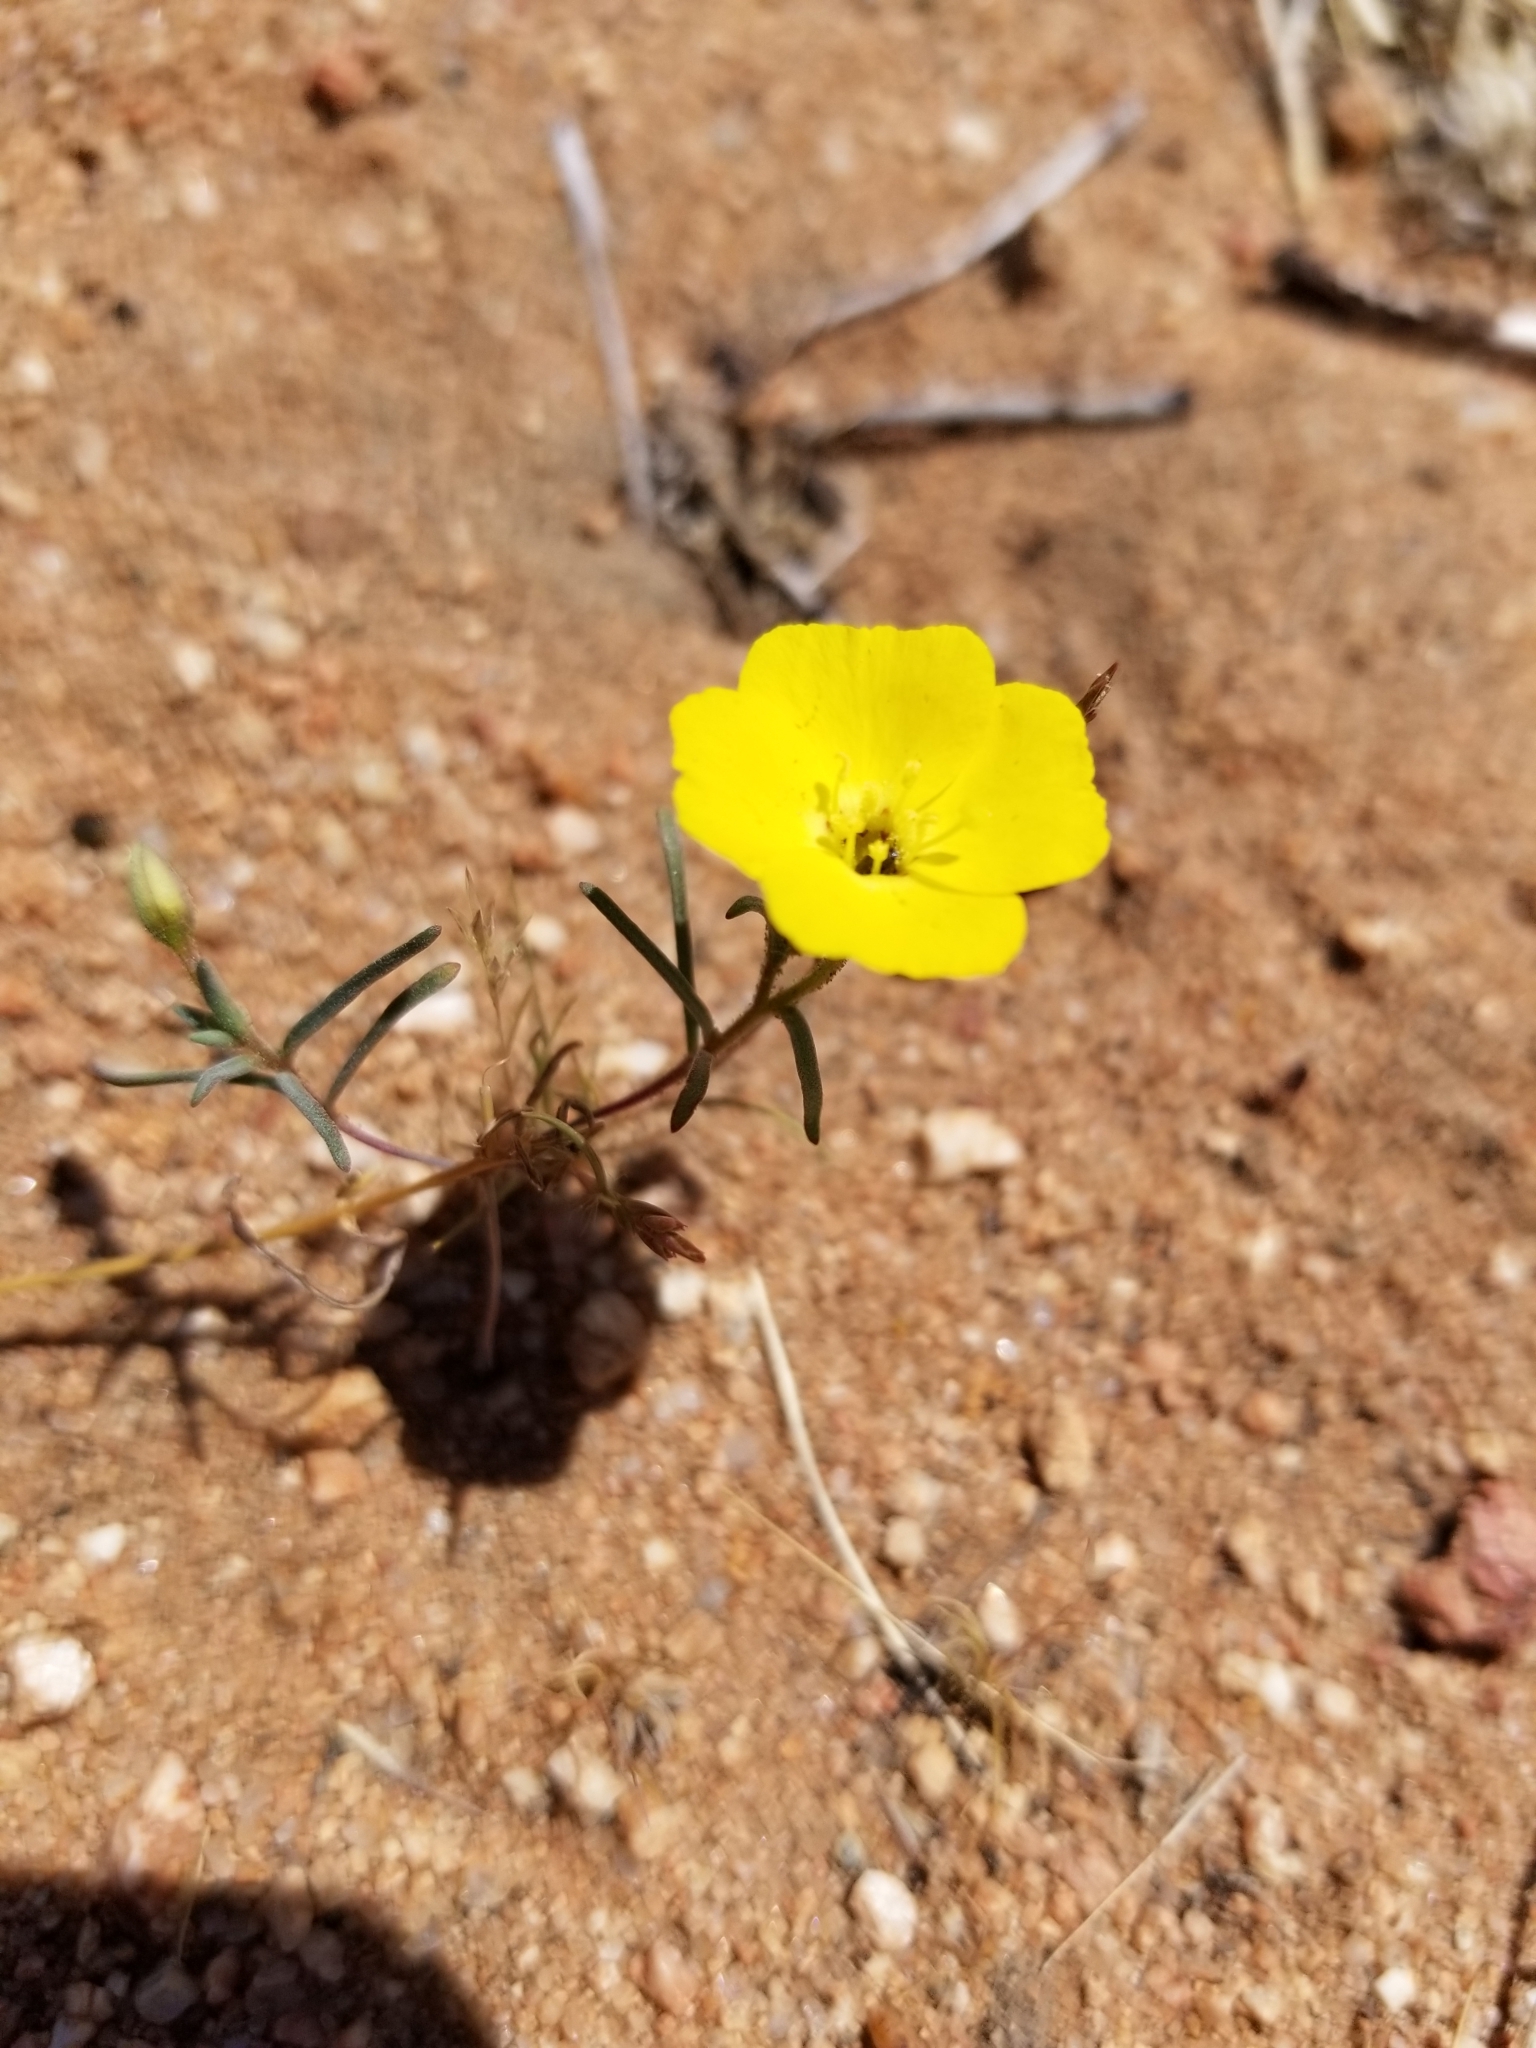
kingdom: Plantae
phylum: Tracheophyta
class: Magnoliopsida
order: Myrtales
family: Onagraceae
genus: Camissonia
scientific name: Camissonia campestris
